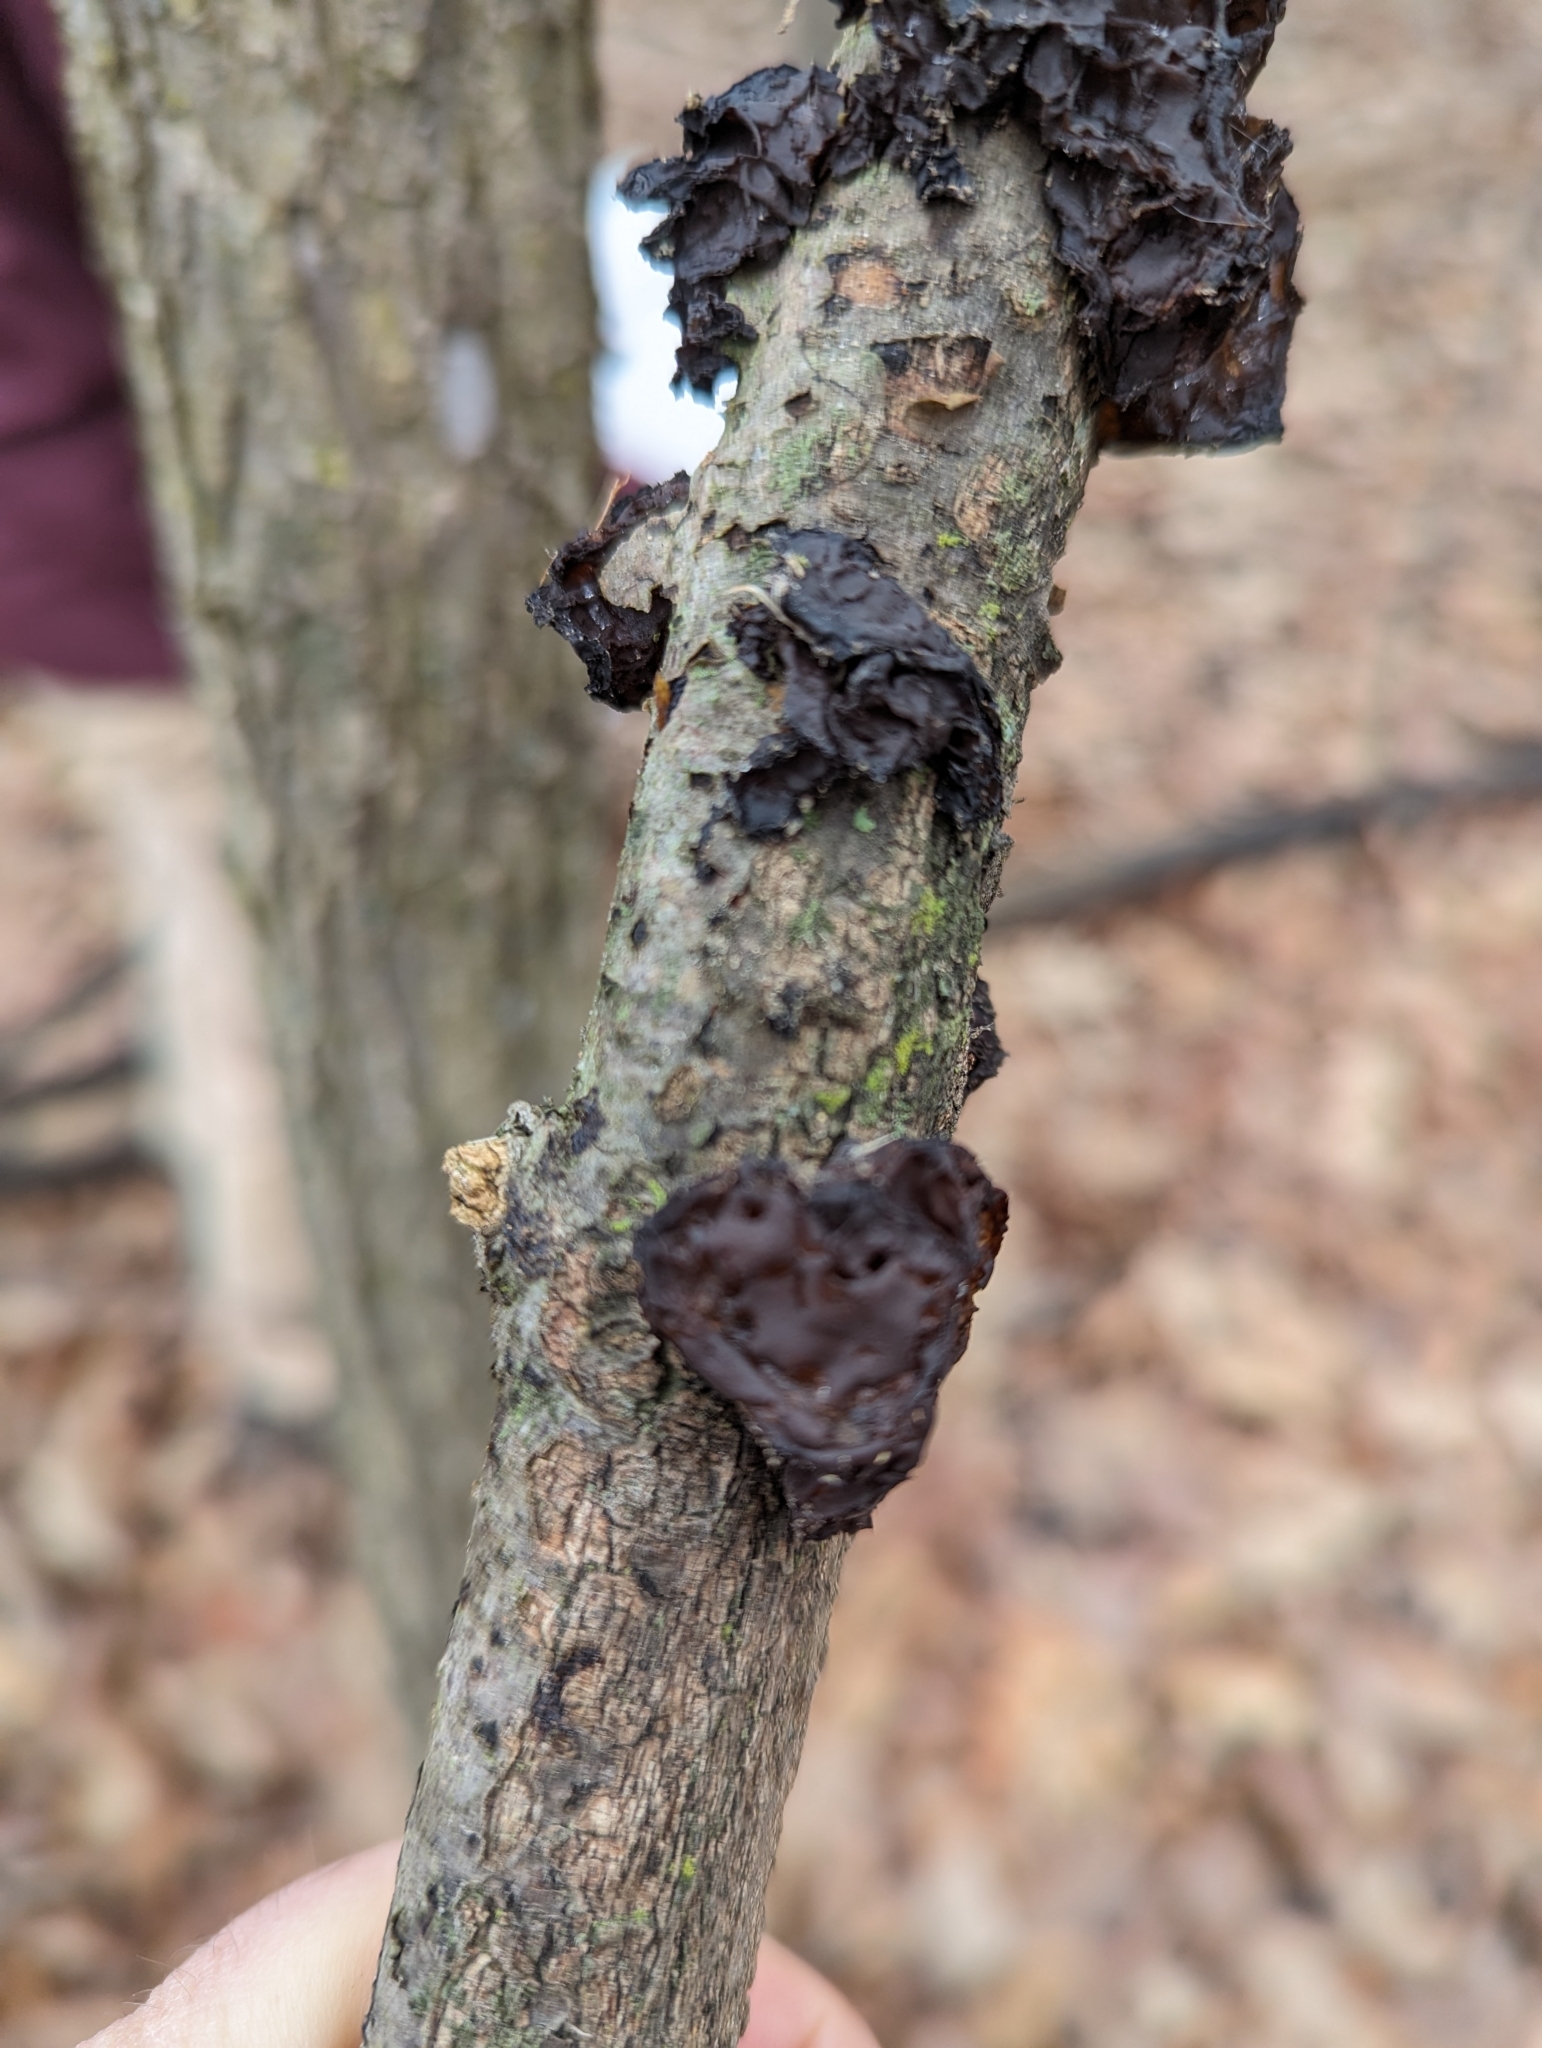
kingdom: Fungi
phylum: Basidiomycota
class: Agaricomycetes
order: Auriculariales
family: Auriculariaceae
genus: Exidia
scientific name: Exidia
